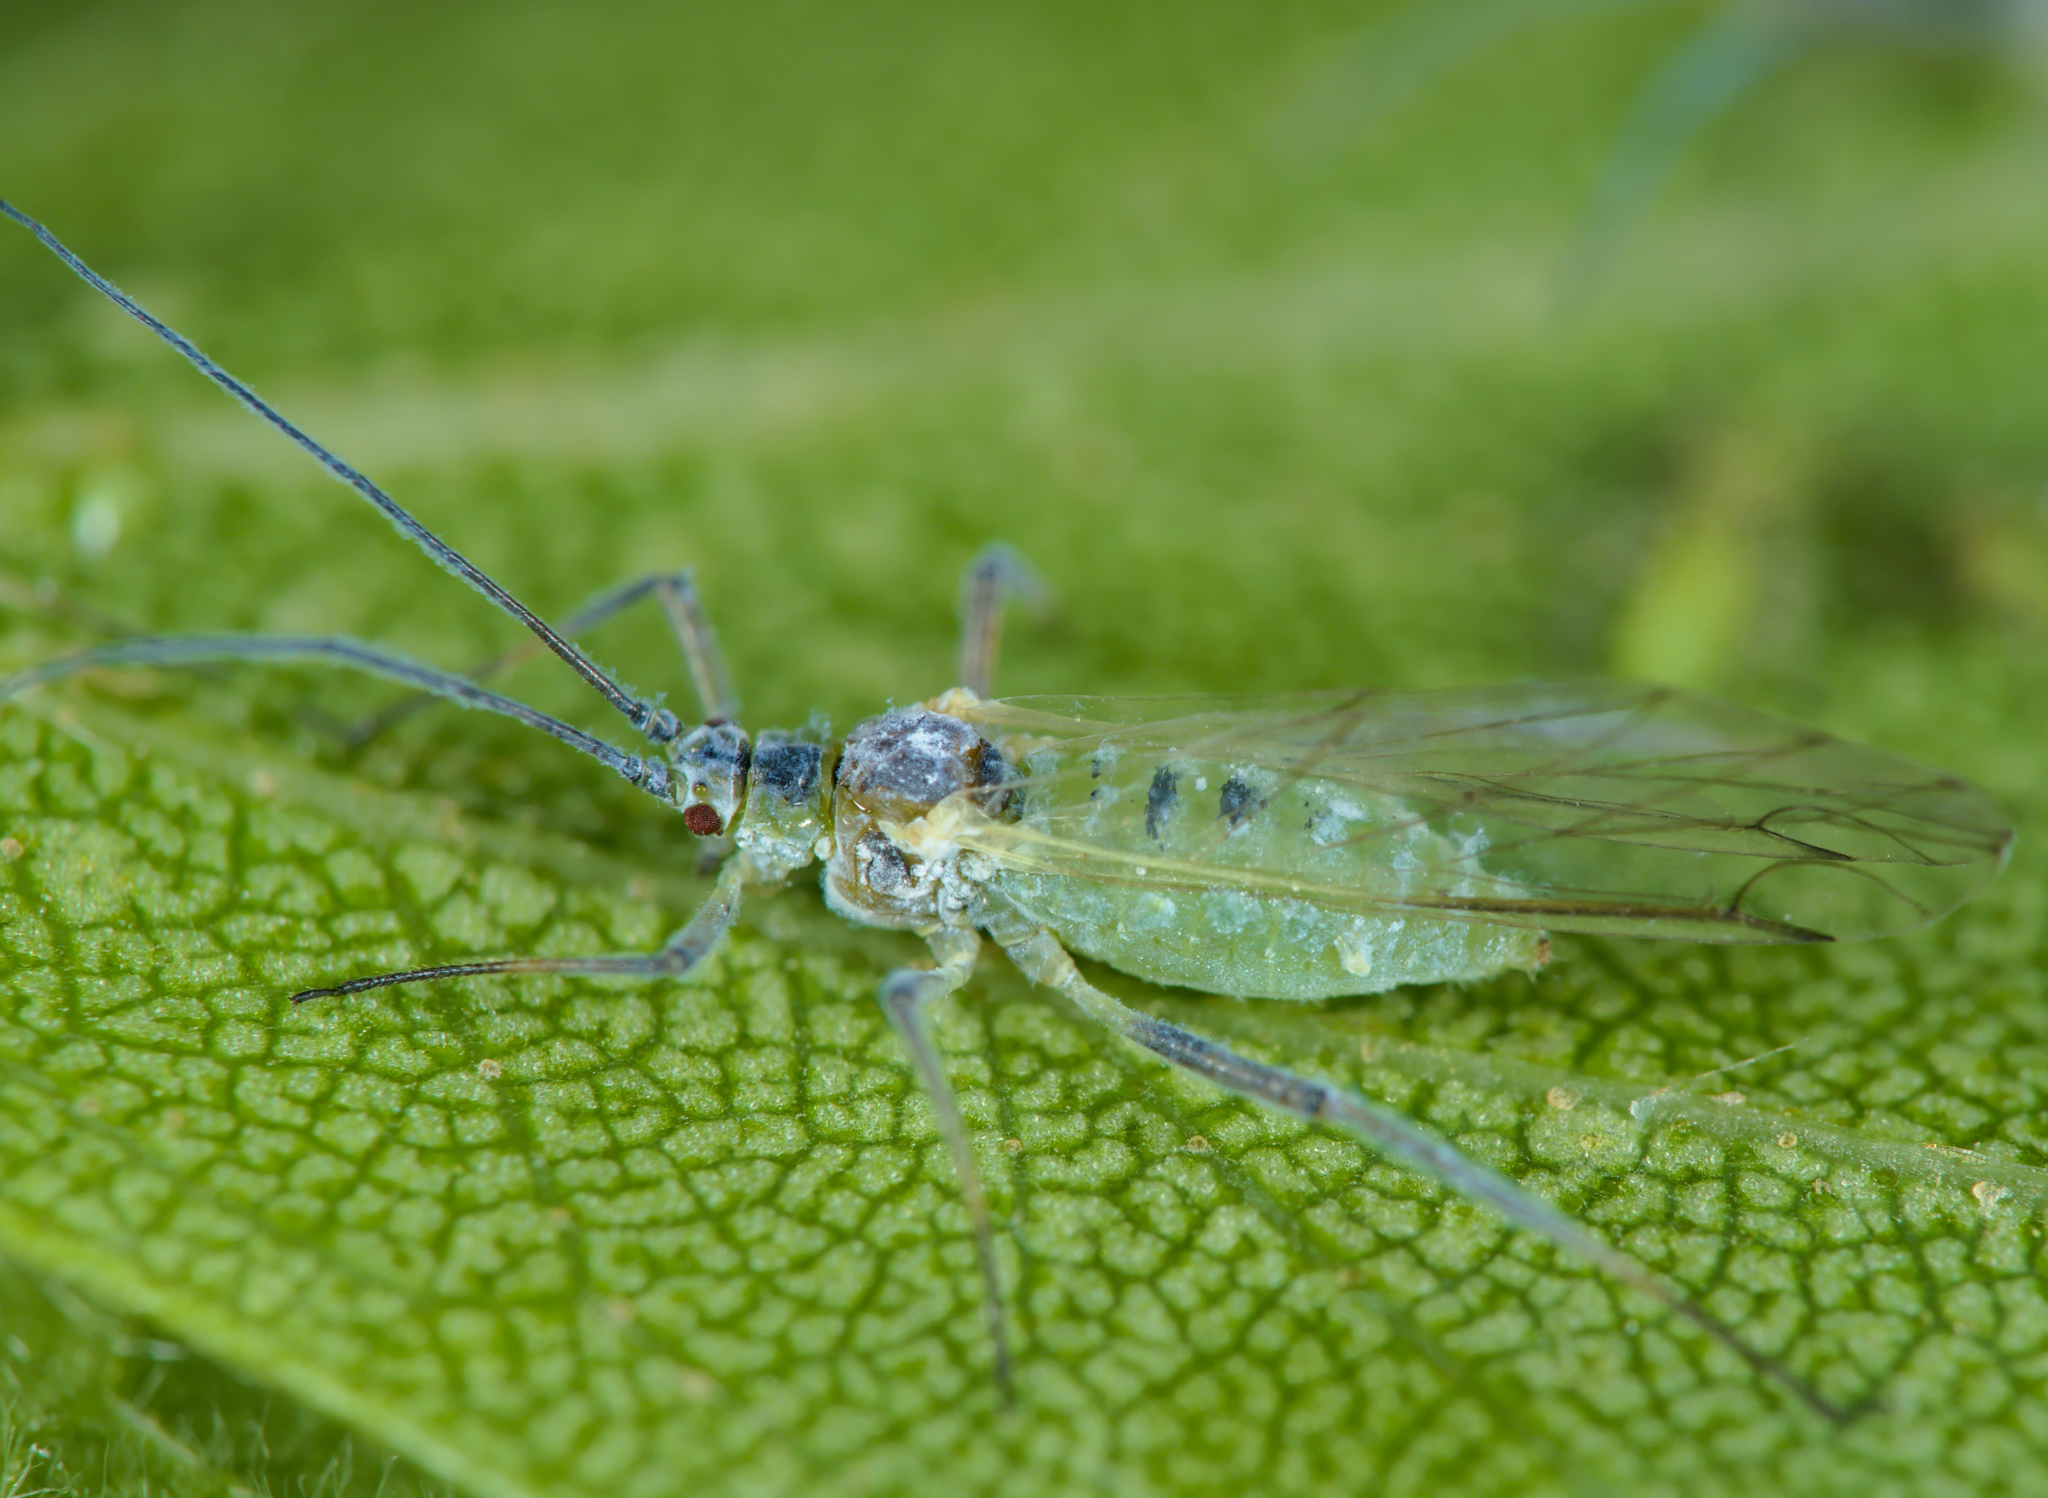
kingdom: Animalia
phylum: Arthropoda
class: Insecta
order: Hemiptera
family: Aphididae
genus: Euceraphis
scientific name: Euceraphis betulae
